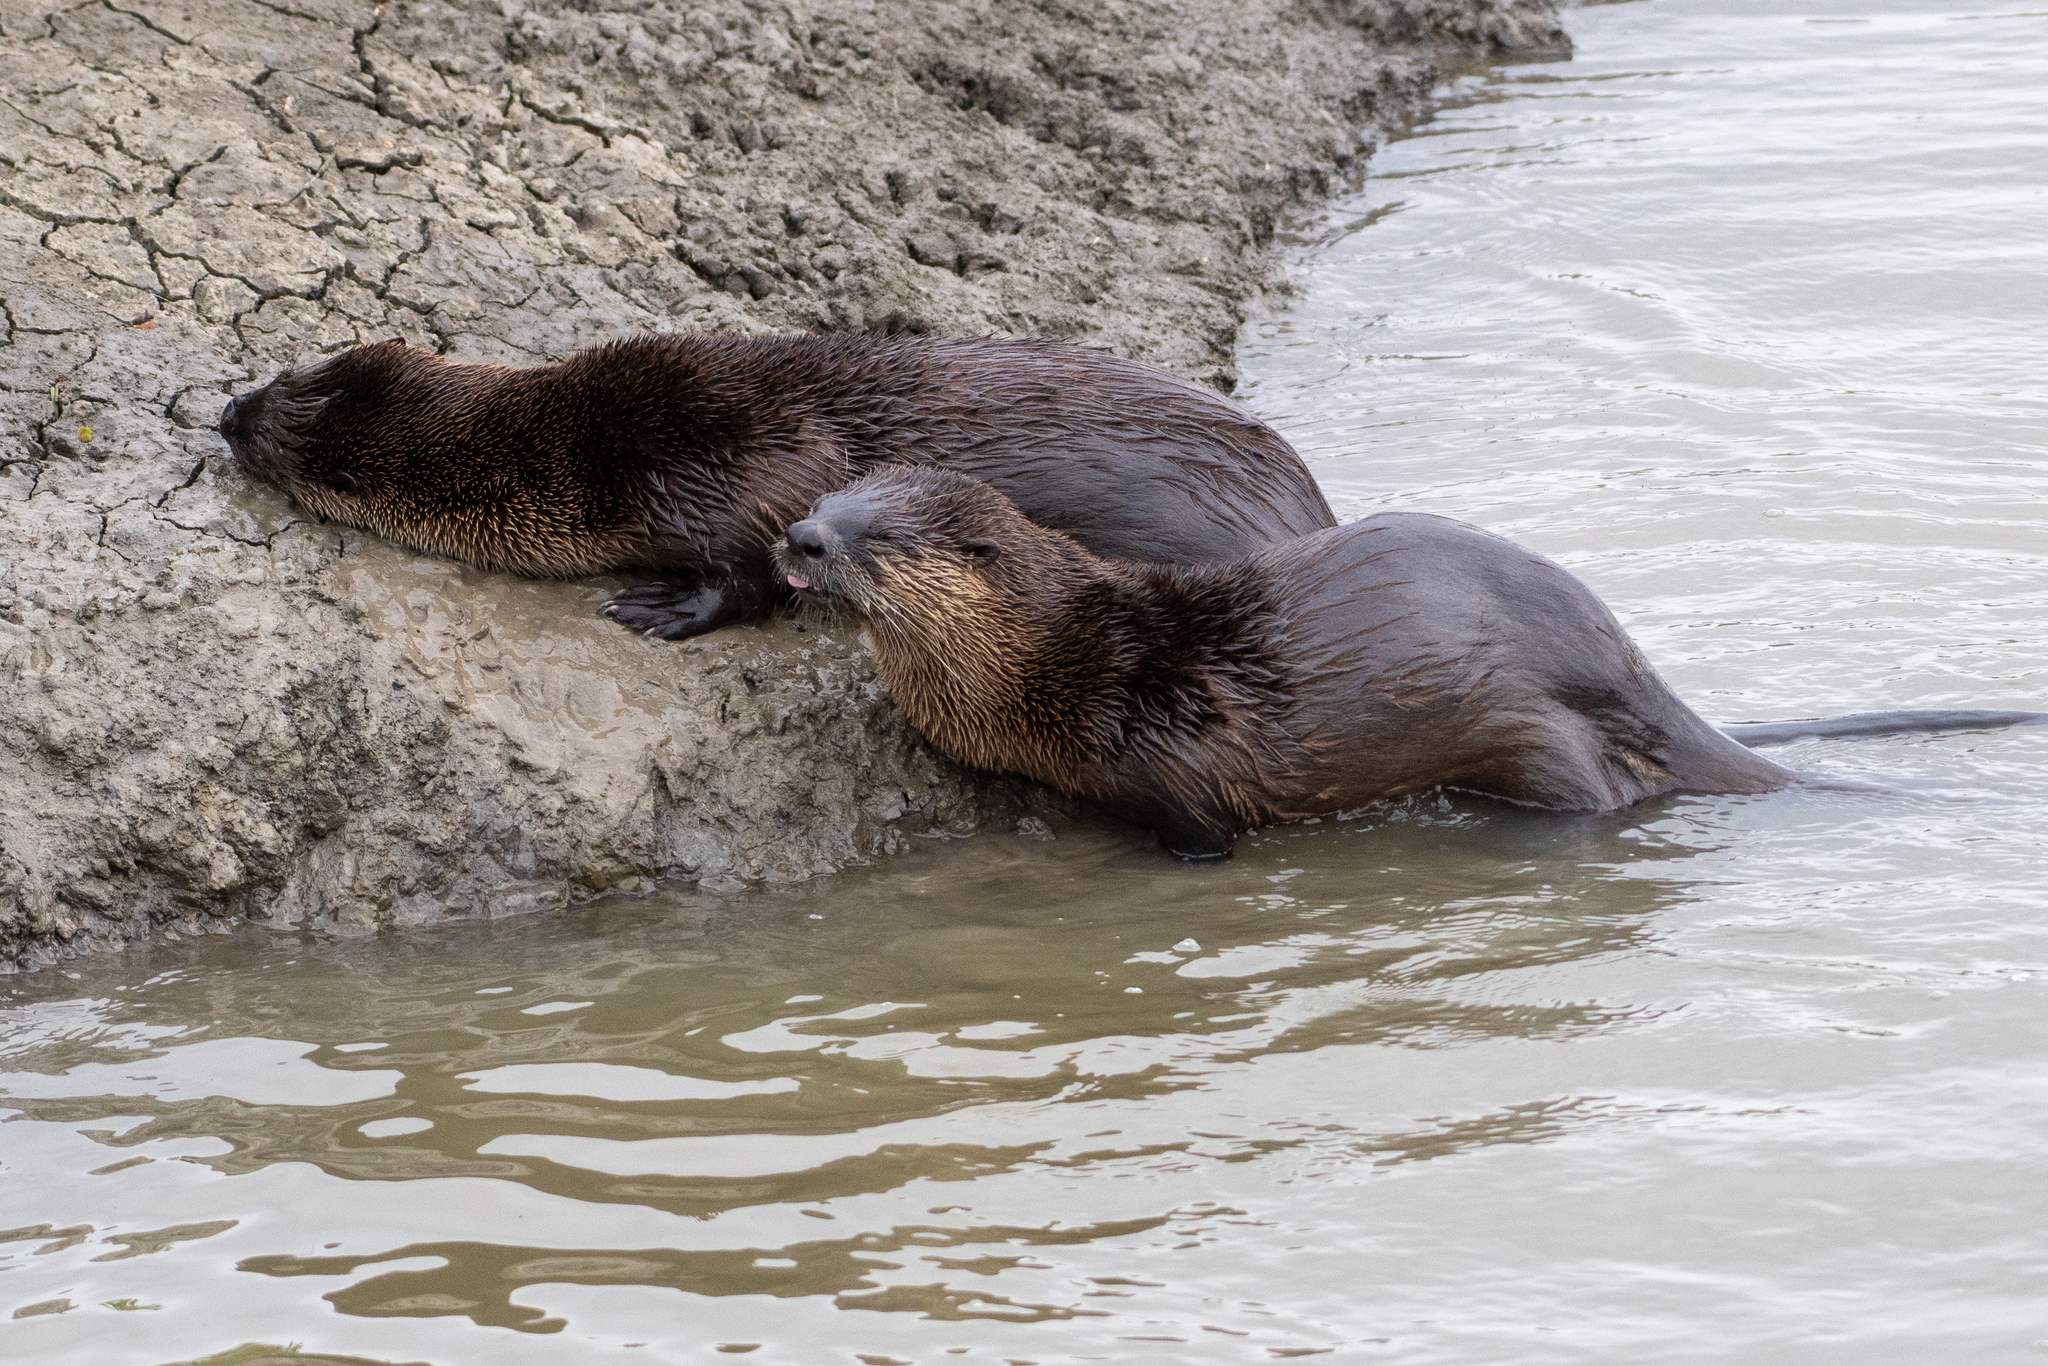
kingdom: Animalia
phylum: Chordata
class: Mammalia
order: Carnivora
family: Mustelidae
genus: Lontra
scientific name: Lontra canadensis
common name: North american river otter
